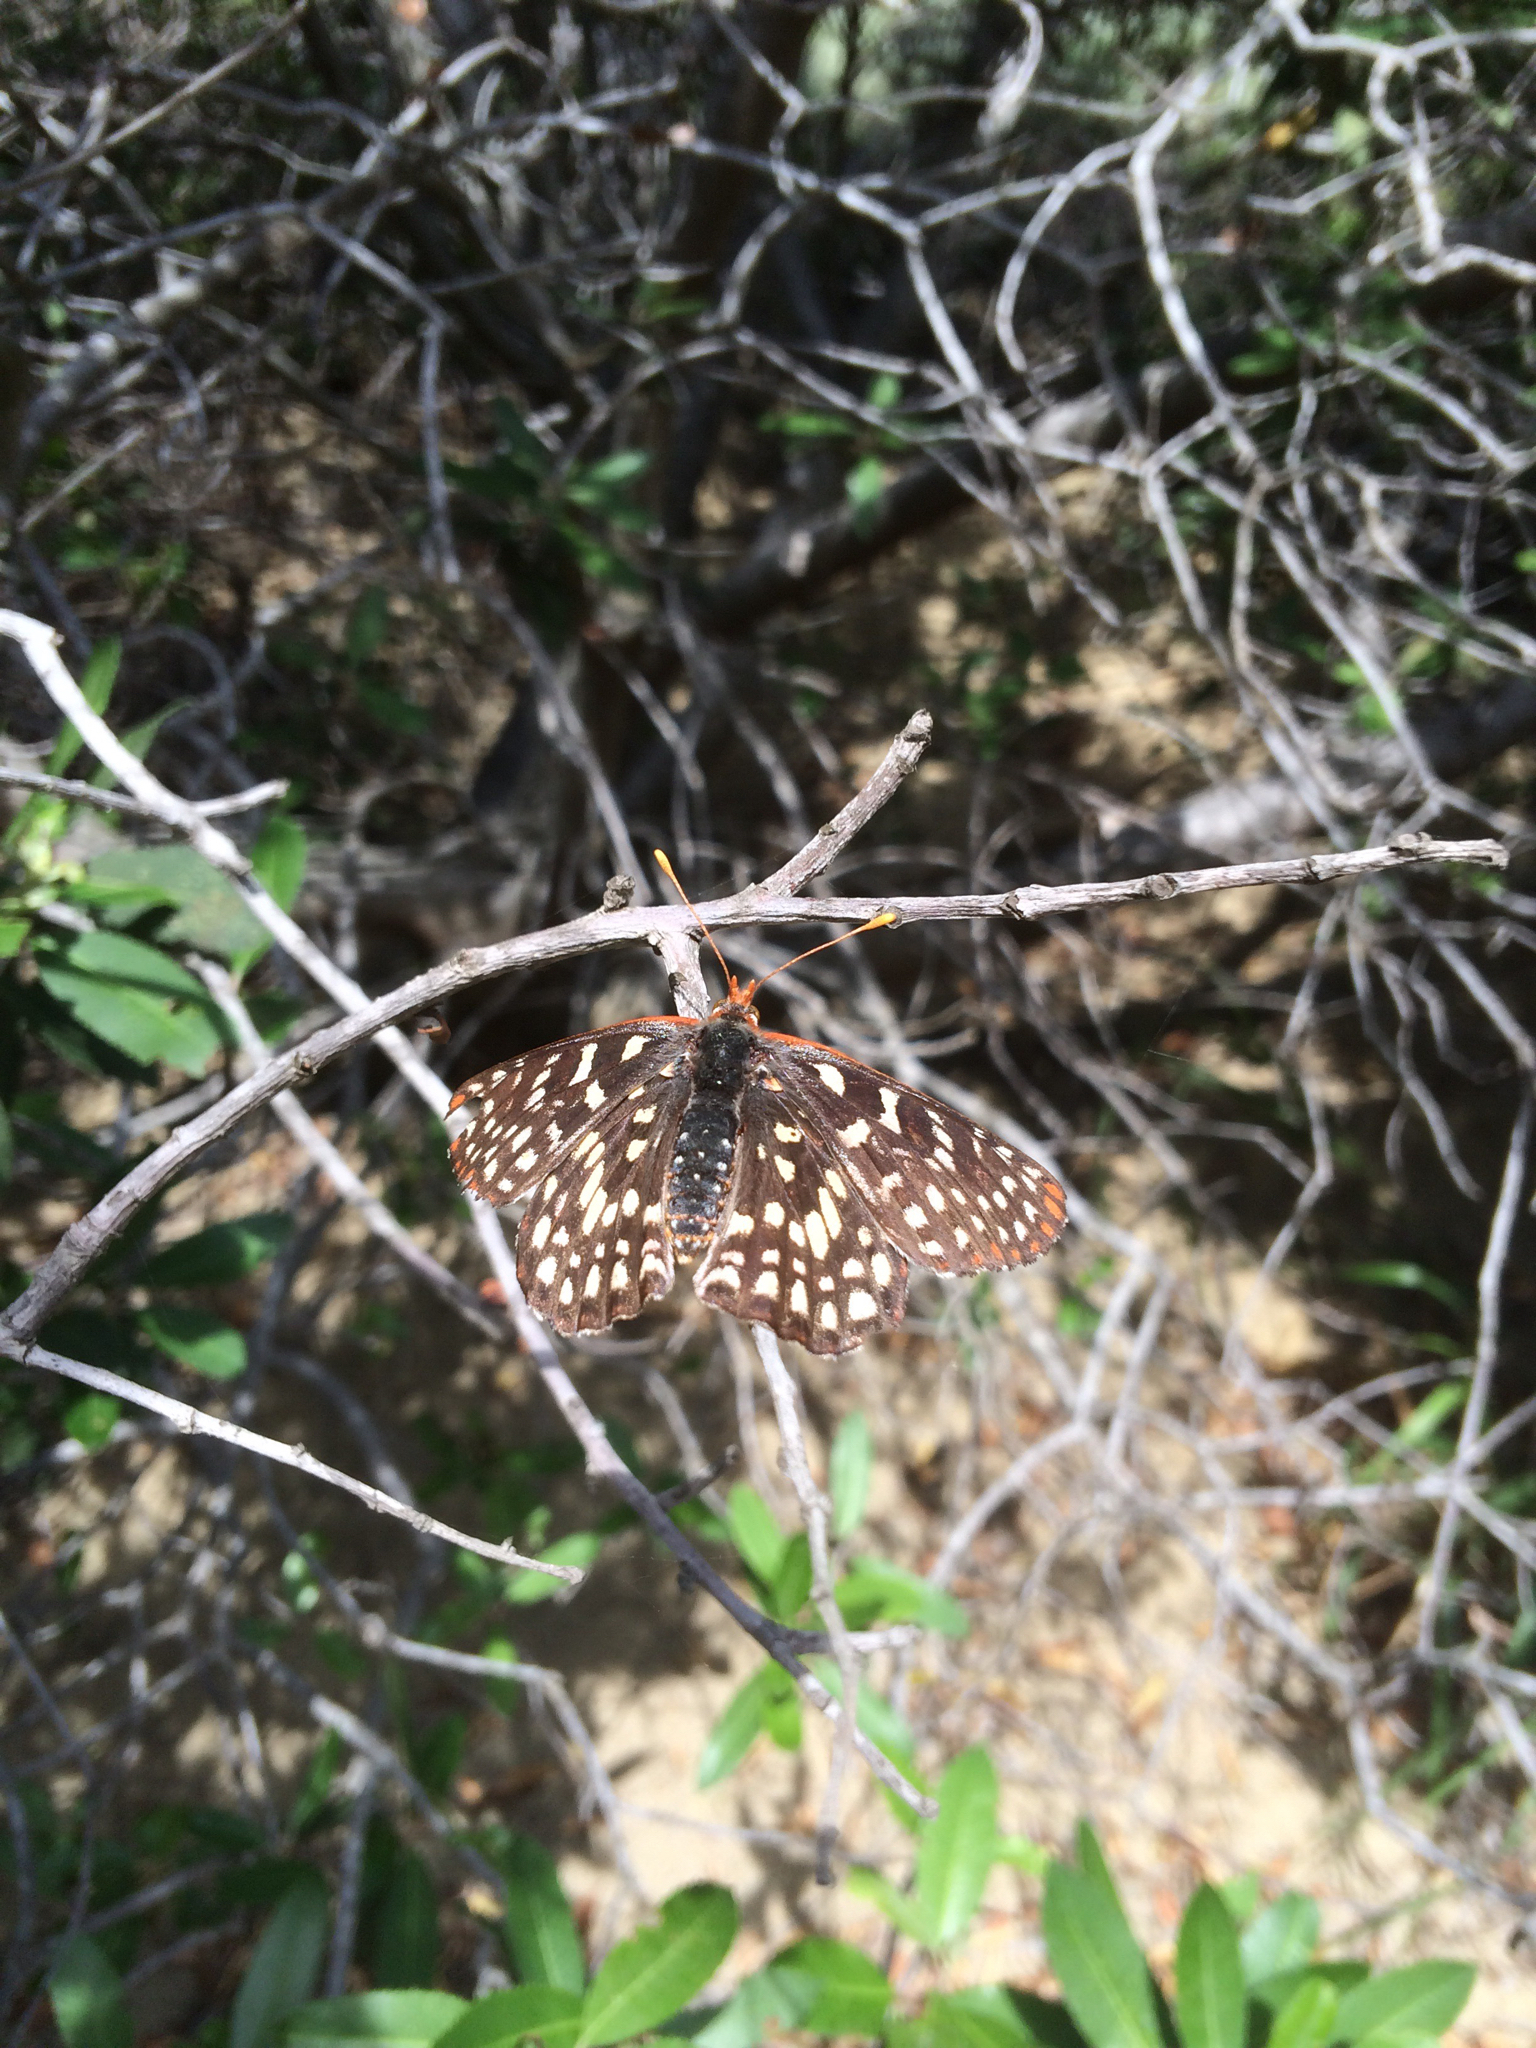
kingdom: Animalia
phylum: Arthropoda
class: Insecta
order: Lepidoptera
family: Nymphalidae
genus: Occidryas
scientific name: Occidryas chalcedona
